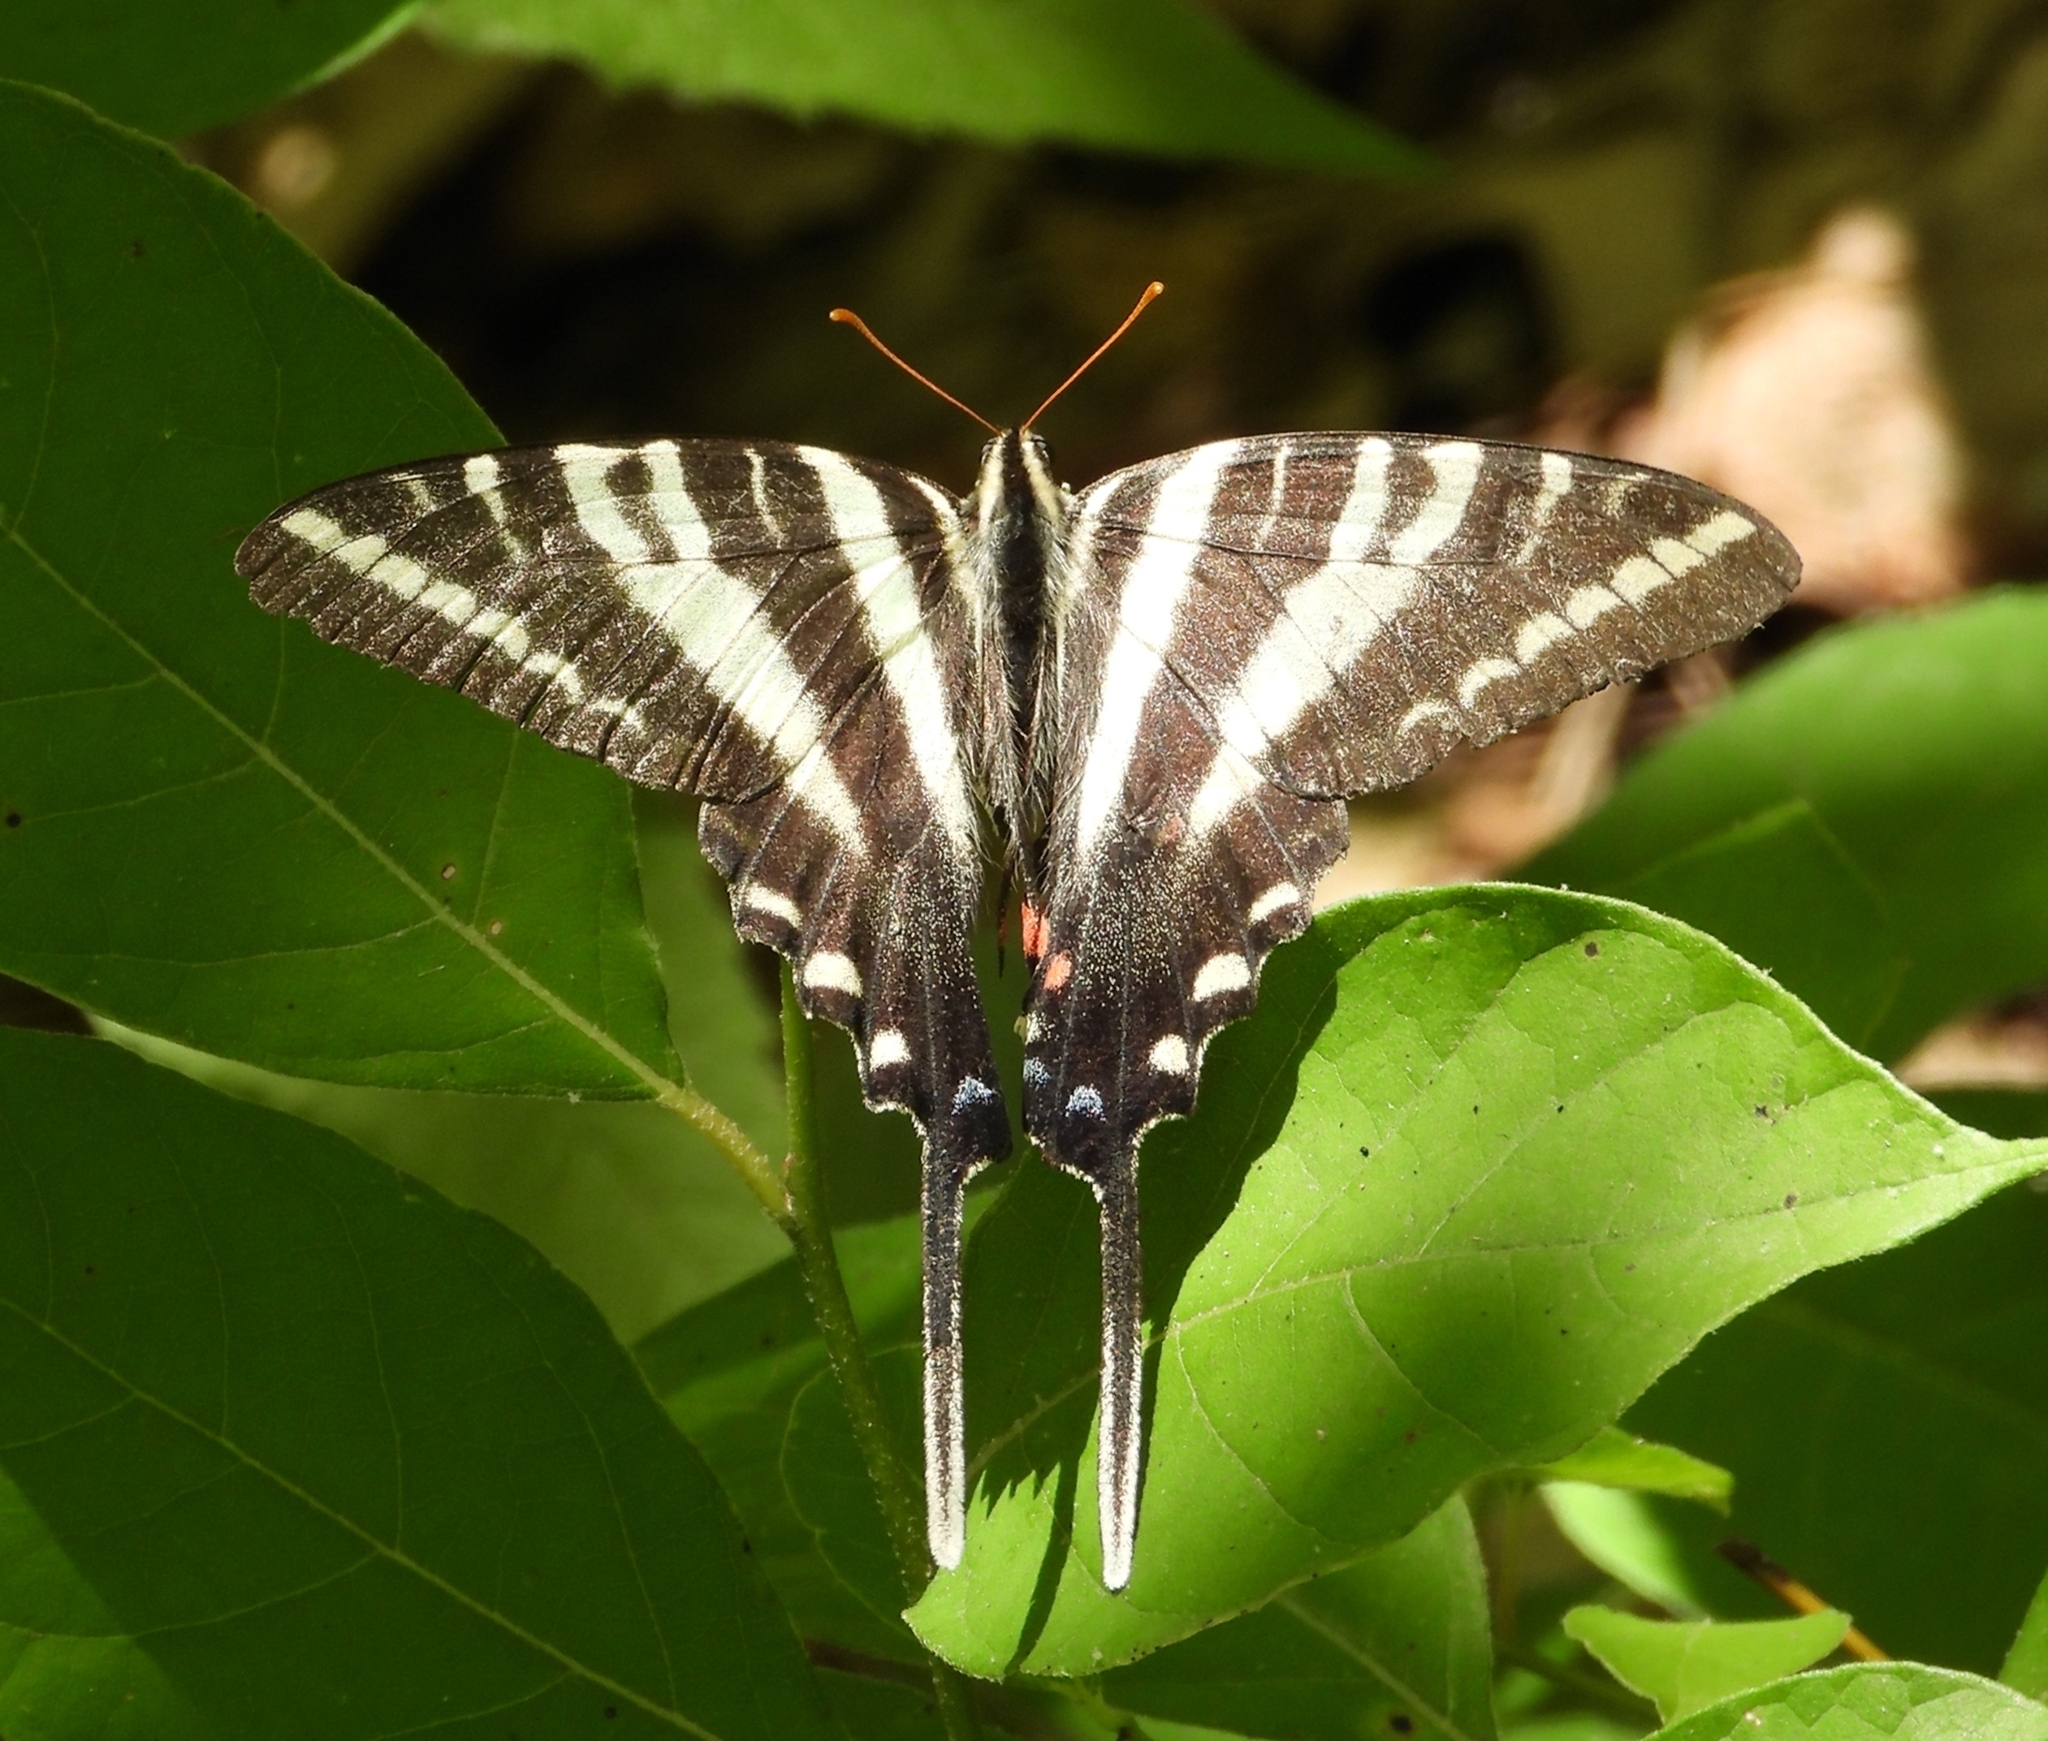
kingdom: Animalia
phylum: Arthropoda
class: Insecta
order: Lepidoptera
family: Papilionidae
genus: Protographium
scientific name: Protographium marcellus
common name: Zebra swallowtail
